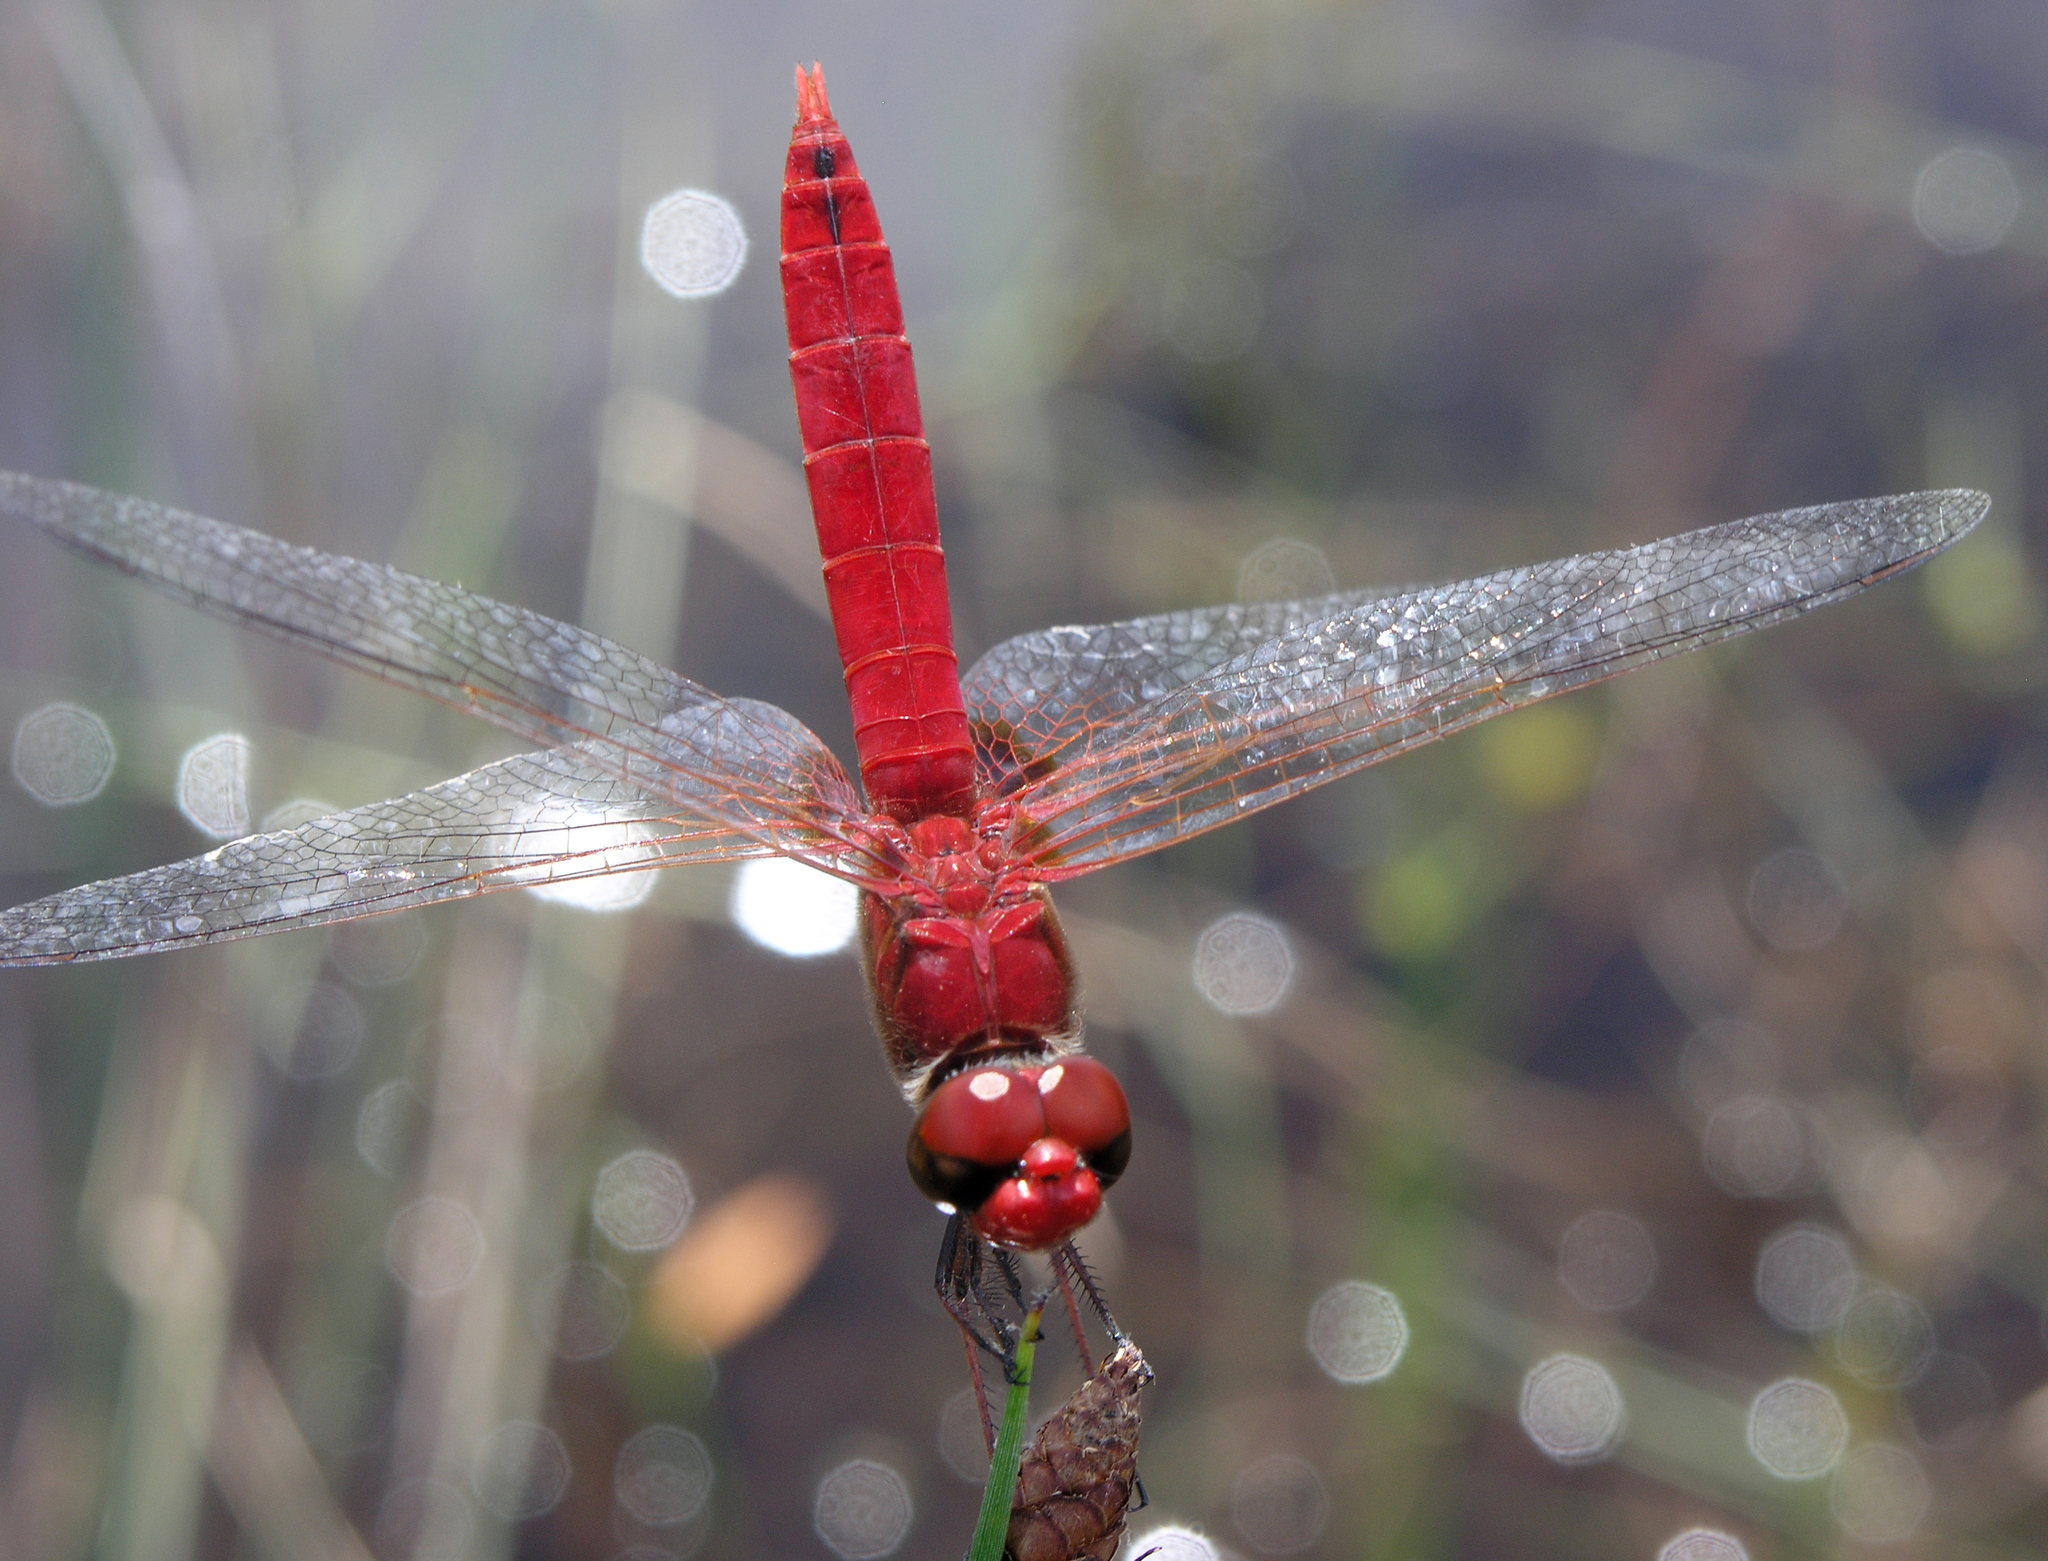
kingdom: Animalia
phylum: Arthropoda
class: Insecta
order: Odonata
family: Libellulidae
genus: Urothemis
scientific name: Urothemis signata
